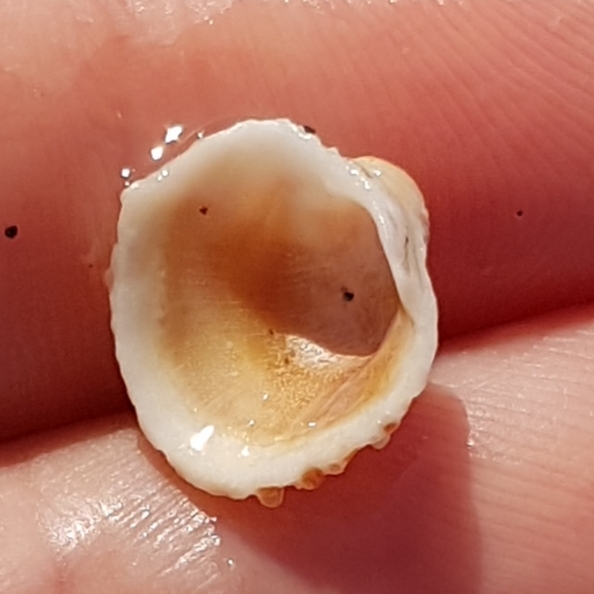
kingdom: Animalia
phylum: Mollusca
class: Bivalvia
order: Venerida
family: Chamidae
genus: Chama
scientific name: Chama gryphoides
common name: Common jewel box
